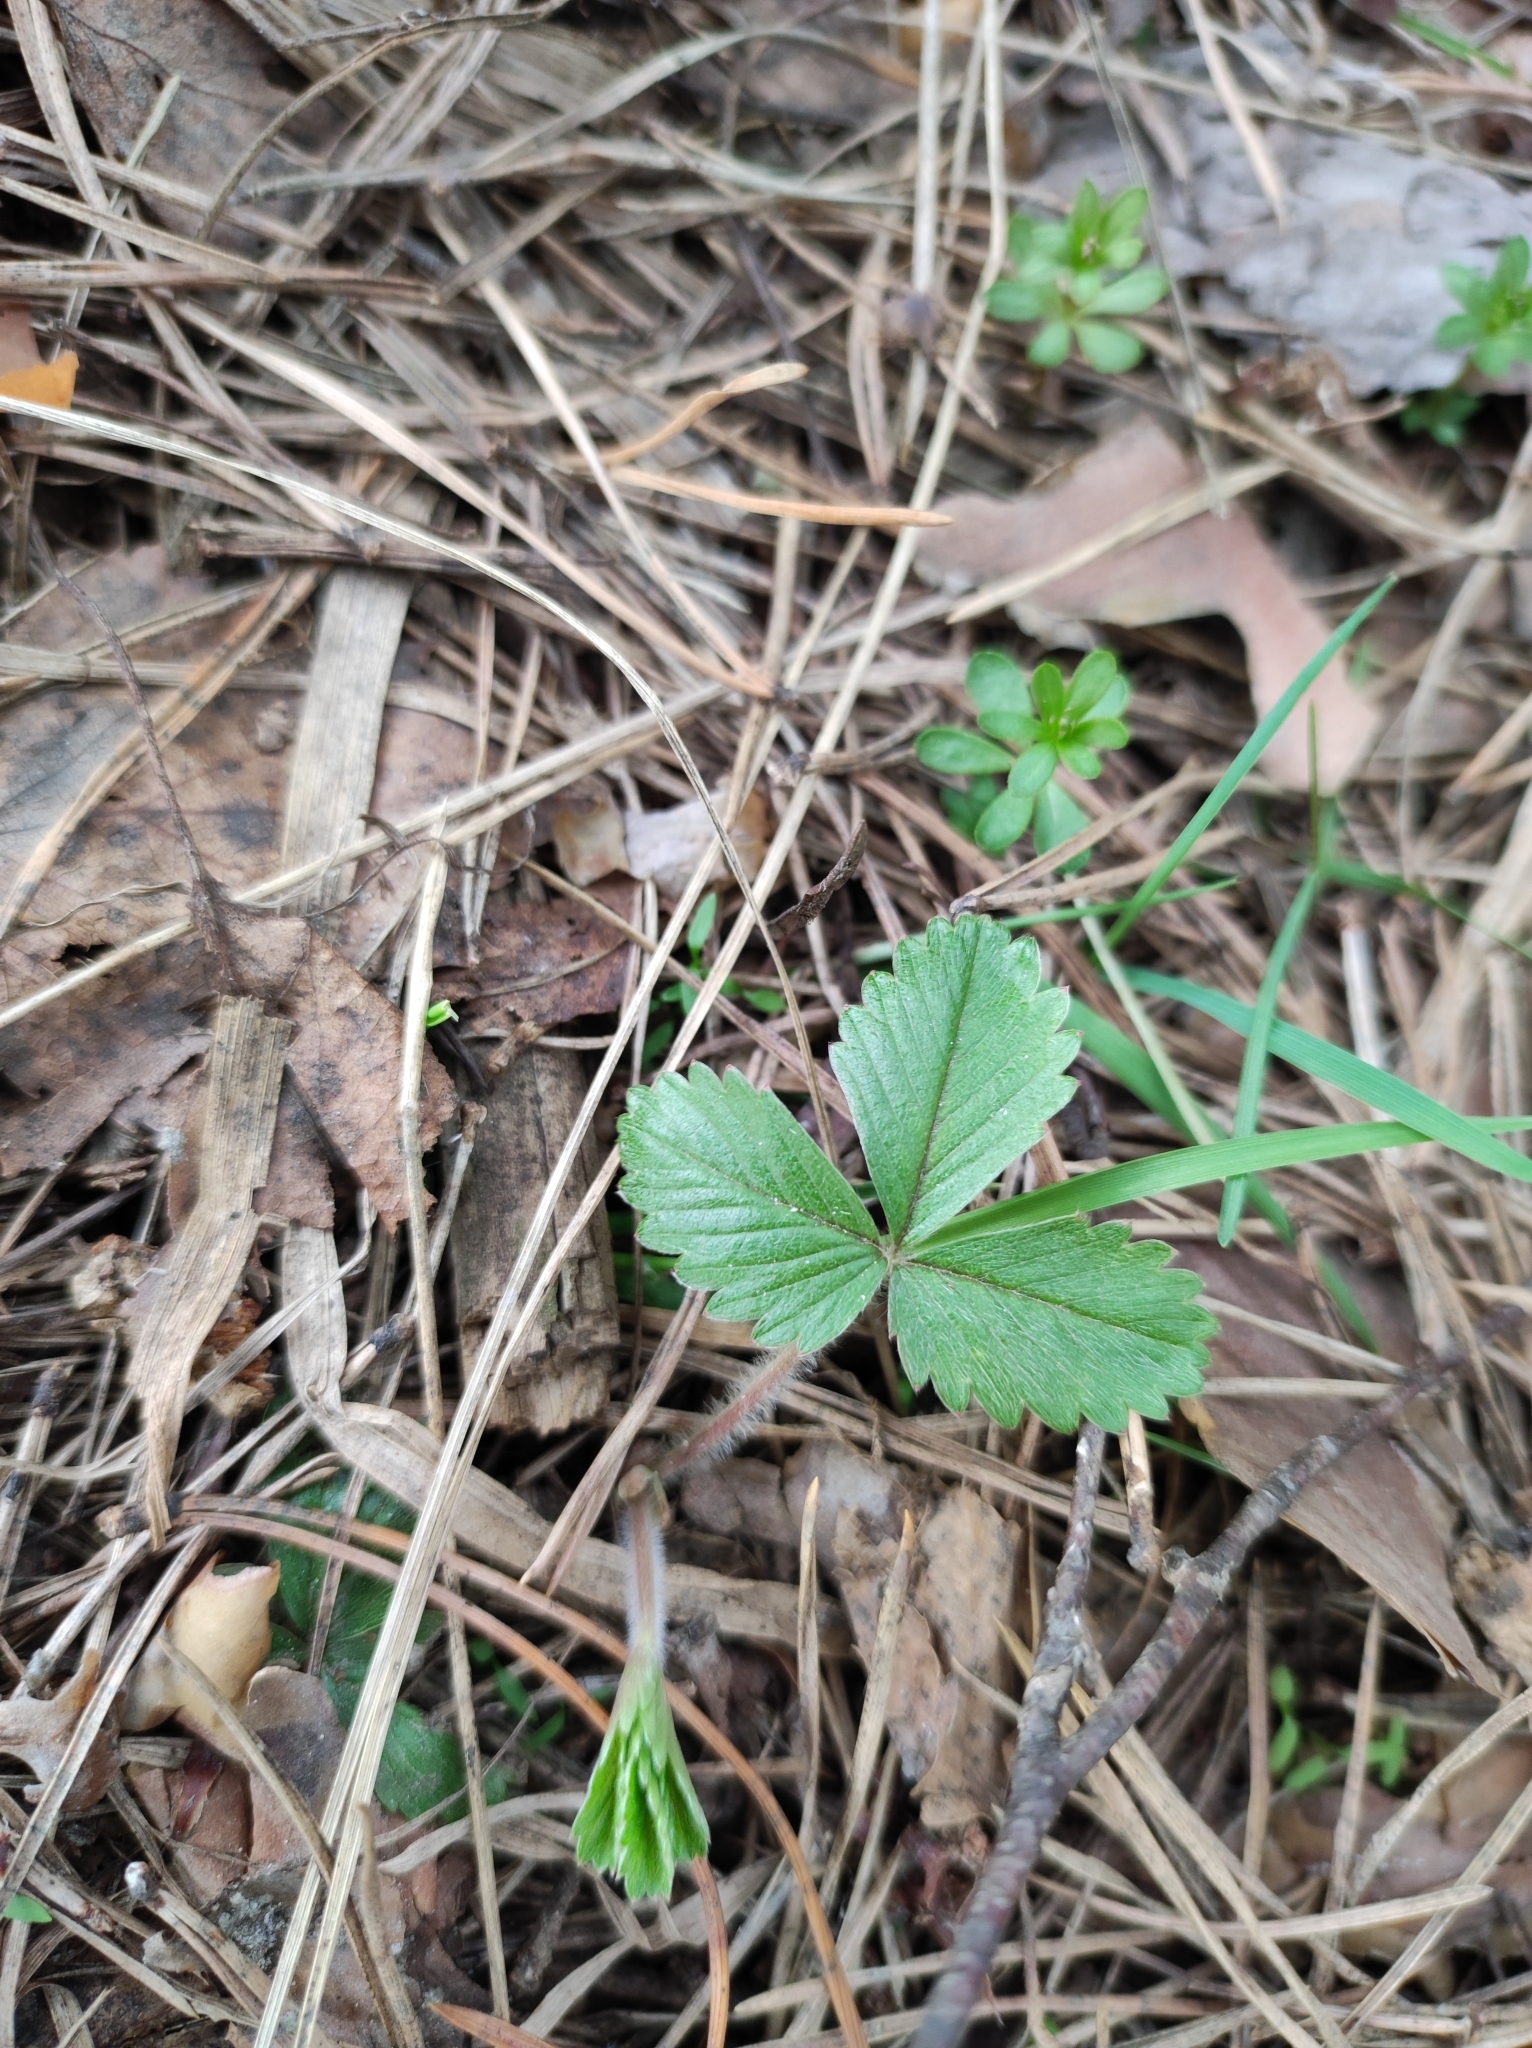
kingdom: Plantae
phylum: Tracheophyta
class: Magnoliopsida
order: Rosales
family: Rosaceae
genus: Fragaria
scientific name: Fragaria vesca
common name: Wild strawberry
